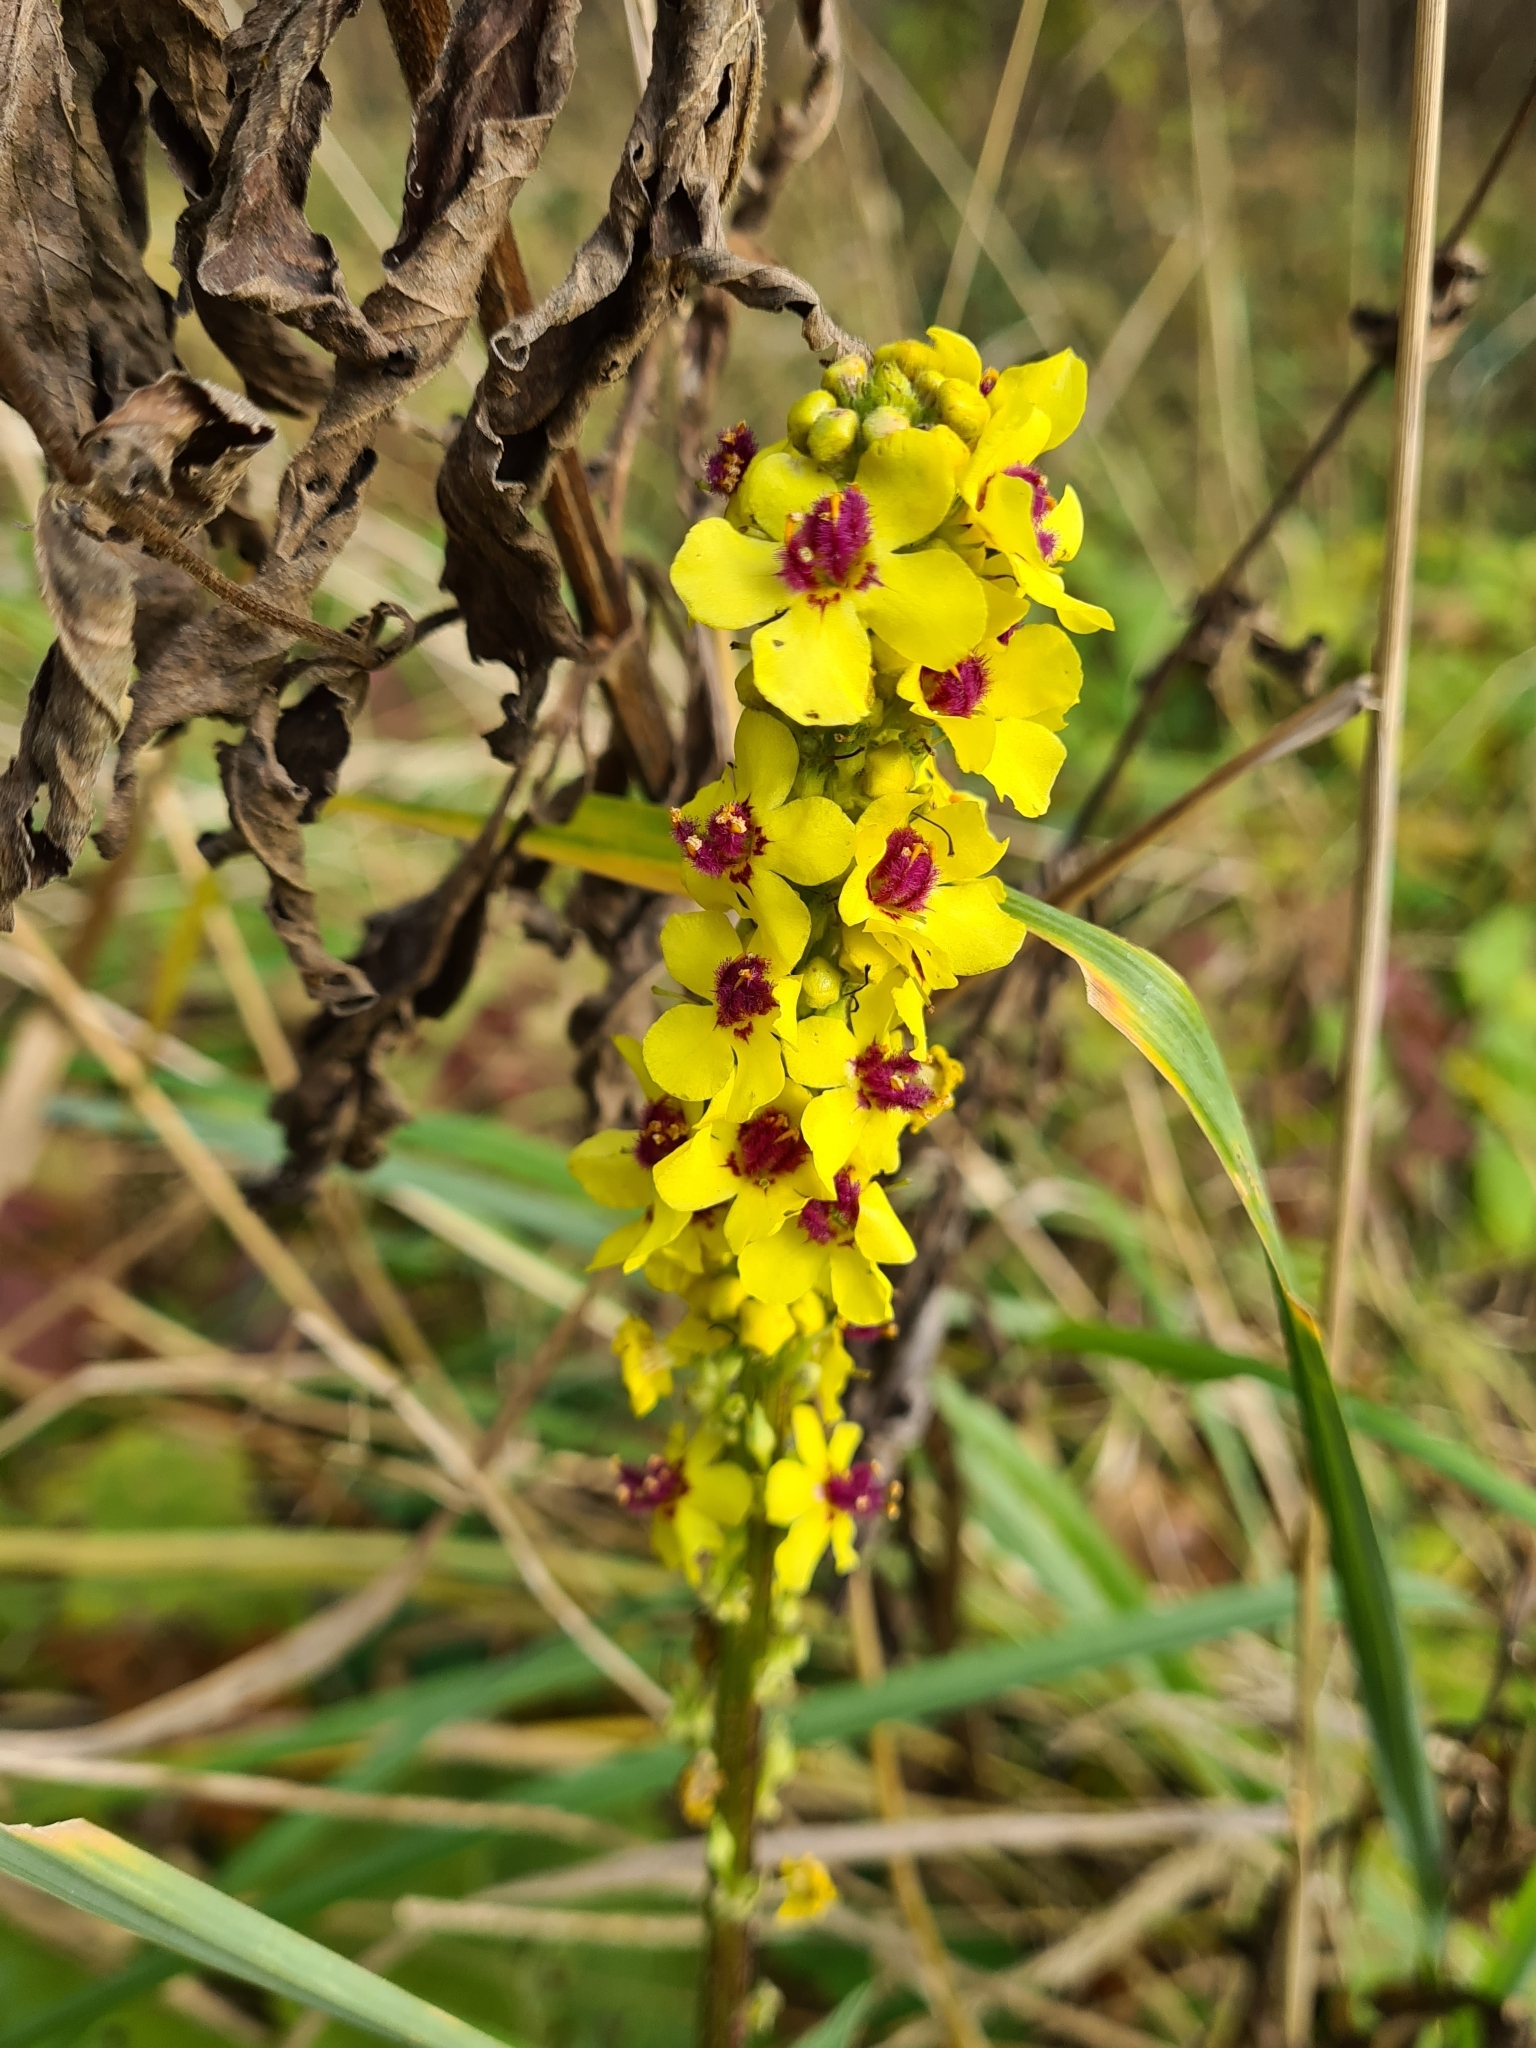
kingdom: Plantae
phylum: Tracheophyta
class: Magnoliopsida
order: Lamiales
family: Scrophulariaceae
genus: Verbascum
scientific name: Verbascum nigrum
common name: Dark mullein
